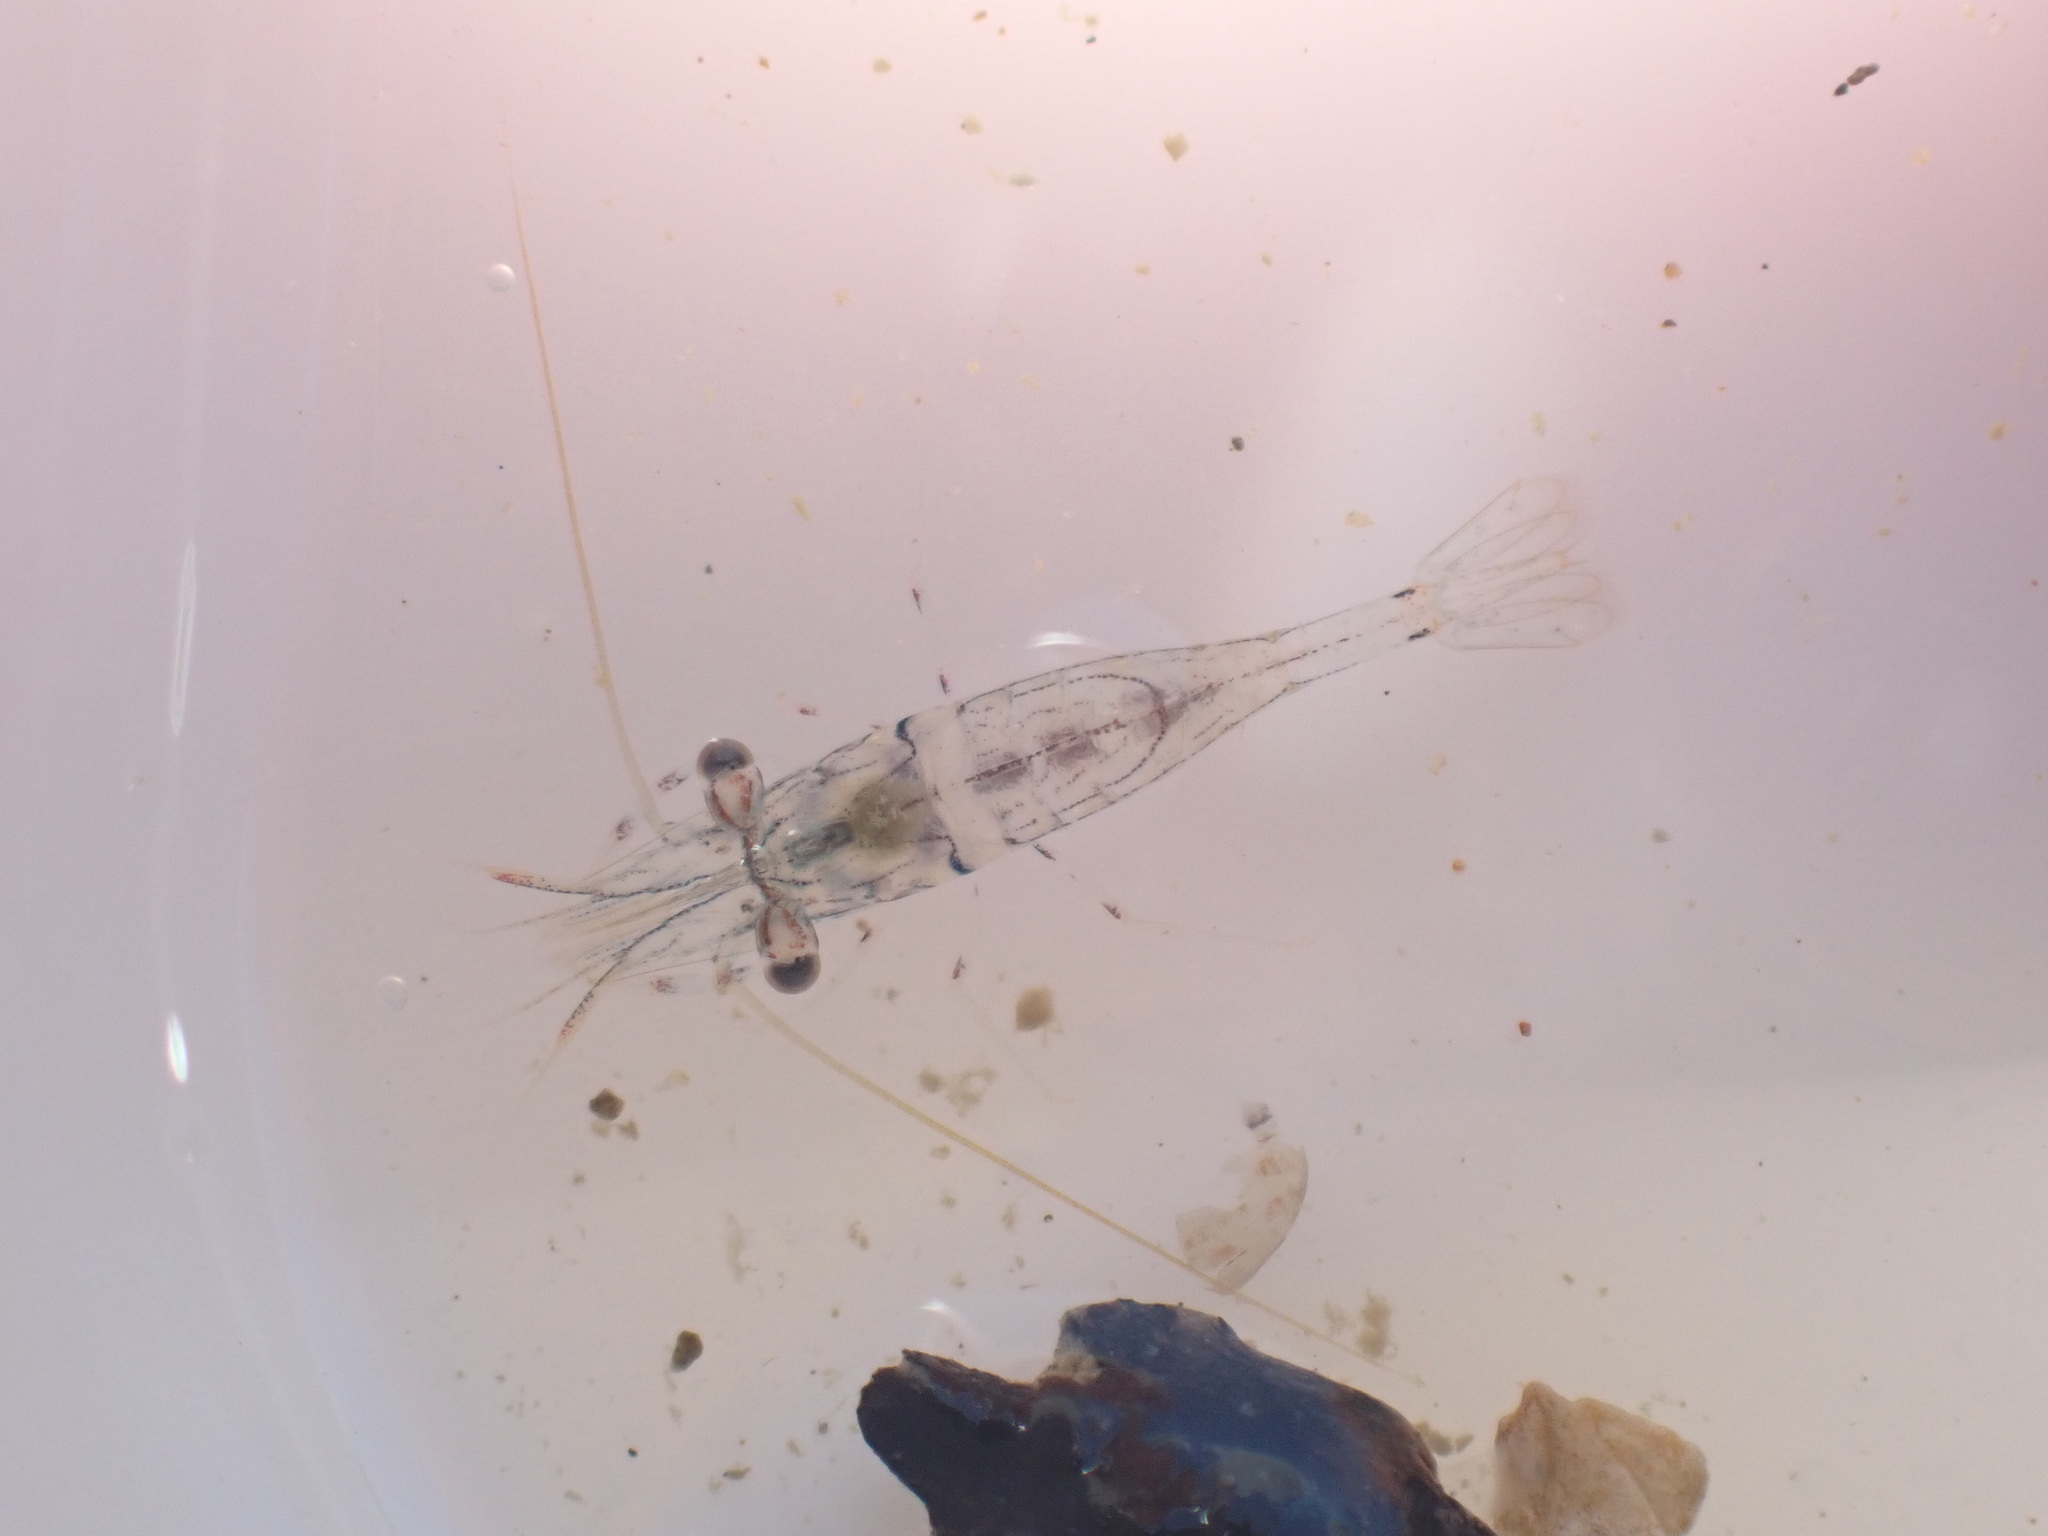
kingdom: Animalia
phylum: Arthropoda
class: Malacostraca
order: Decapoda
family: Palaemonidae
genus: Palaemon
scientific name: Palaemon affinis
